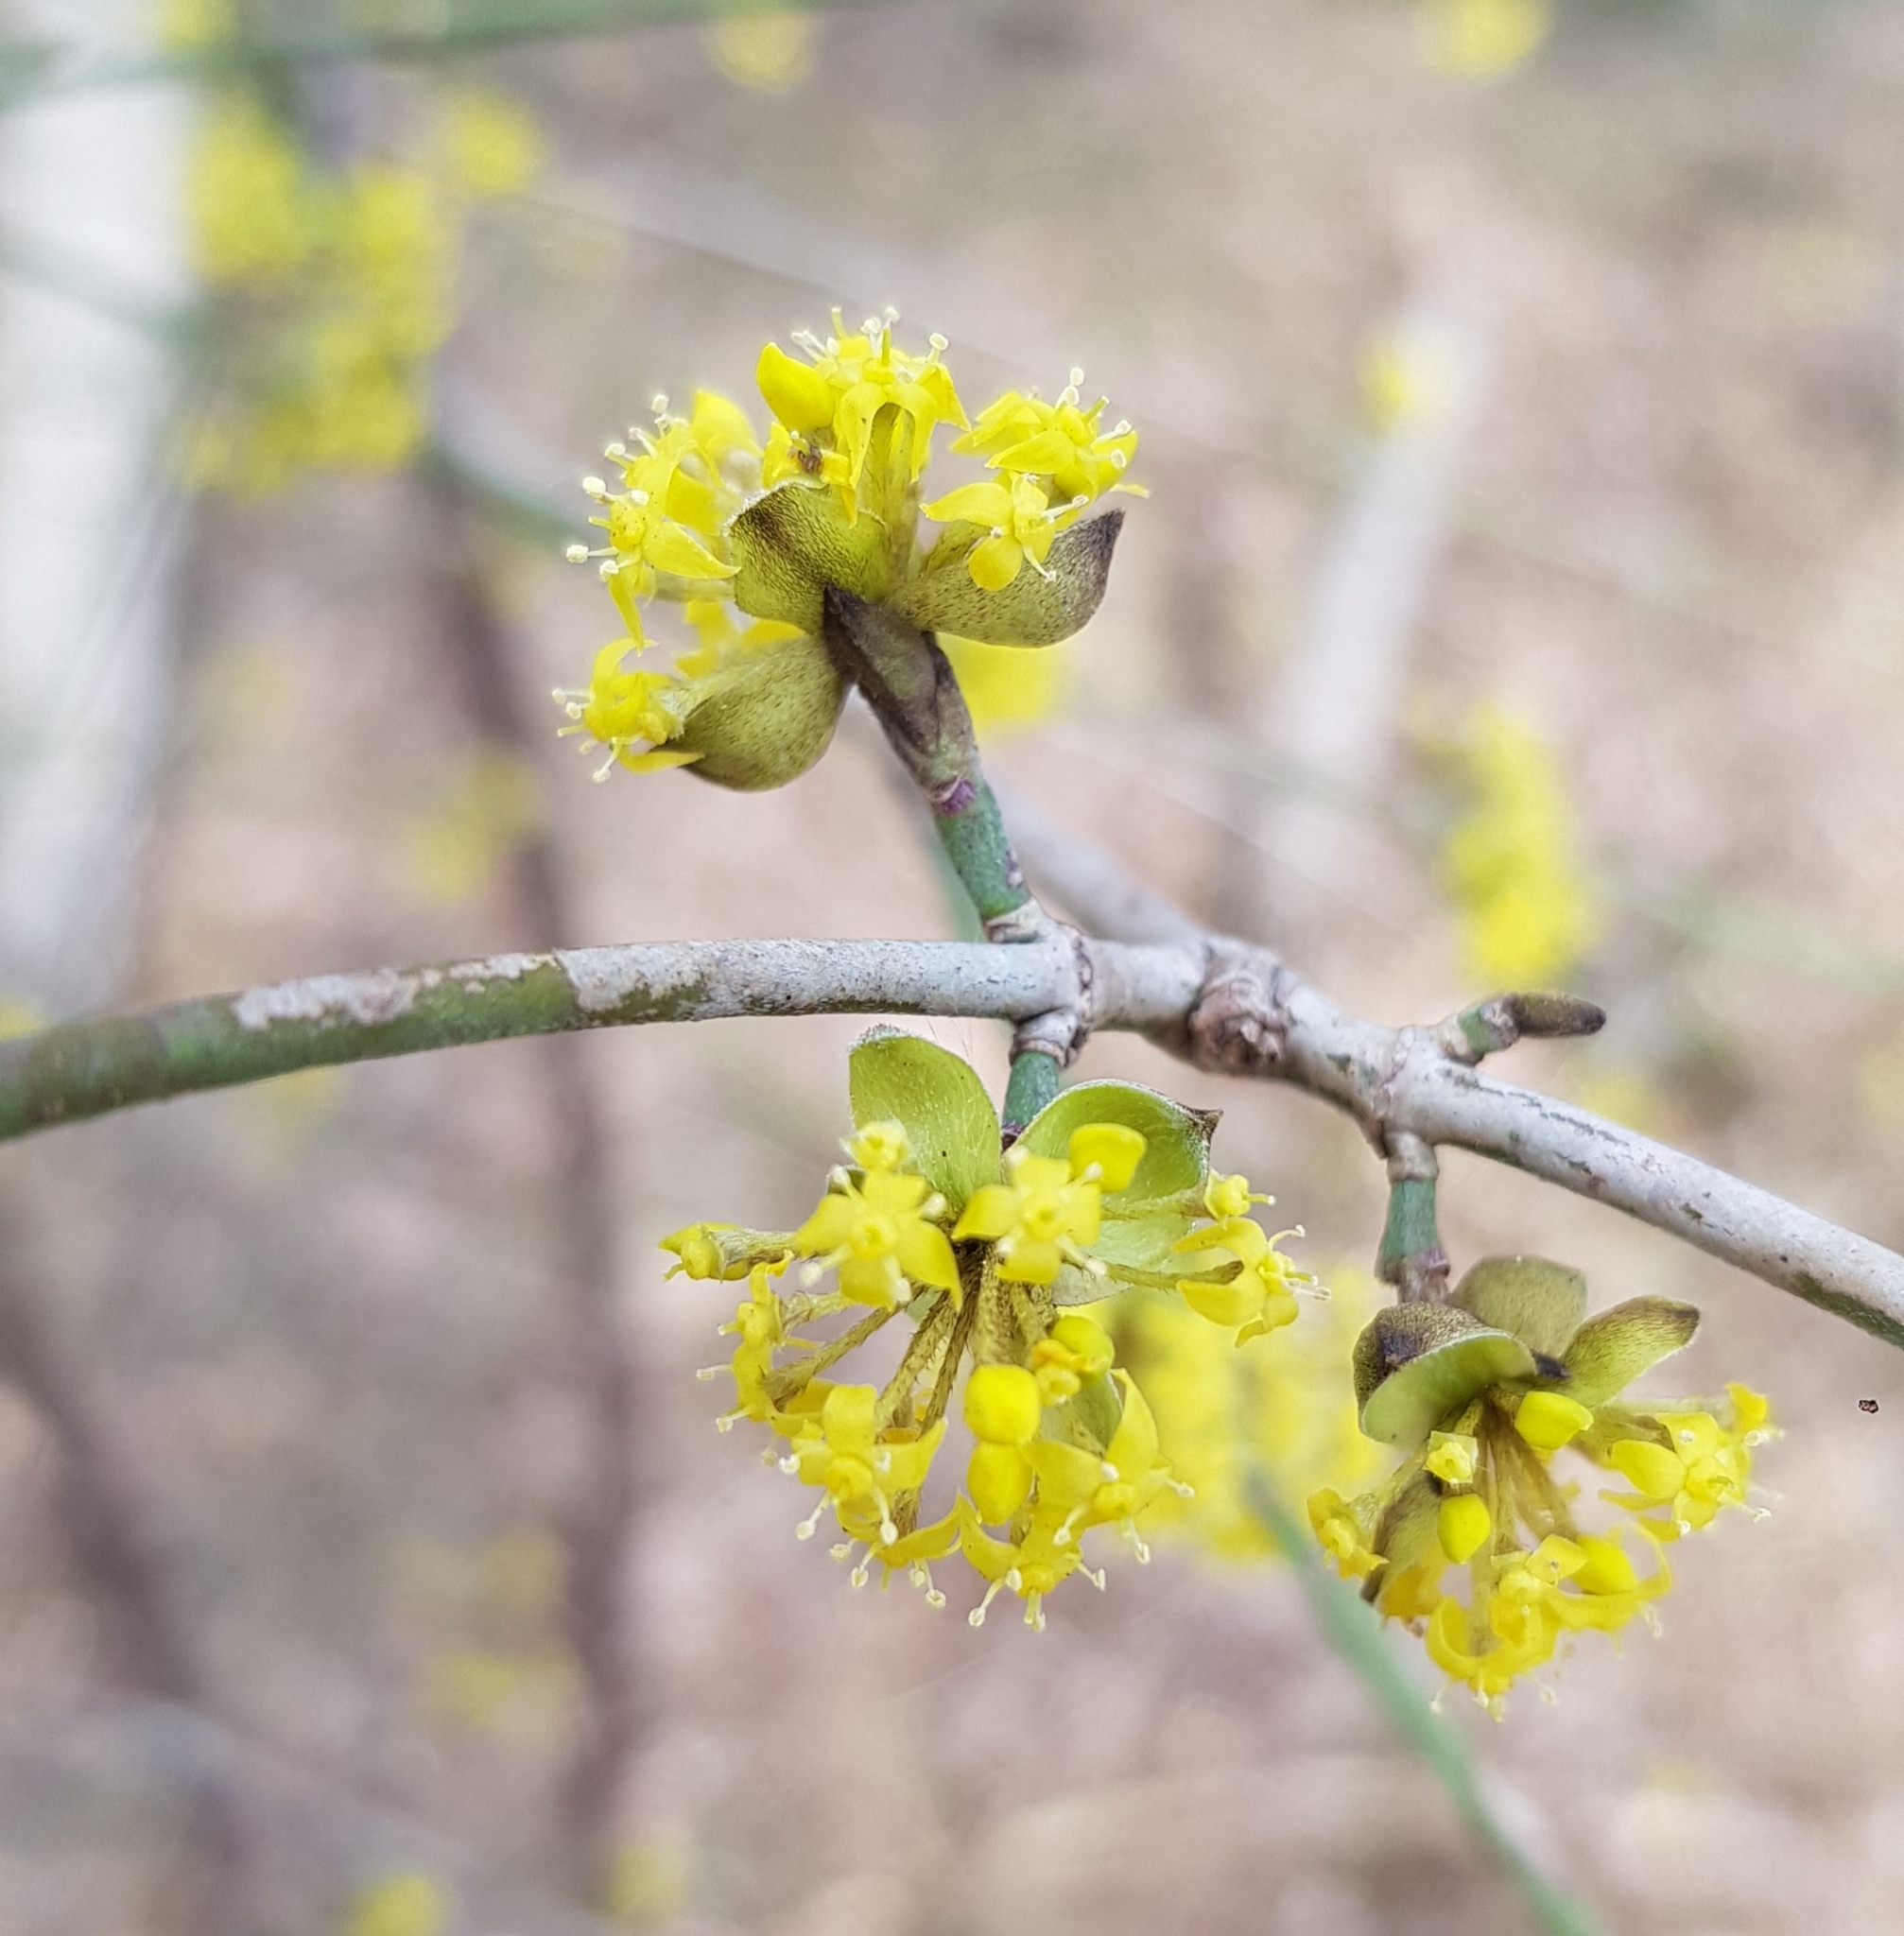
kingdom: Plantae
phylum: Tracheophyta
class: Magnoliopsida
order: Cornales
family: Cornaceae
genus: Cornus
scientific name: Cornus mas
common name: Cornelian-cherry
